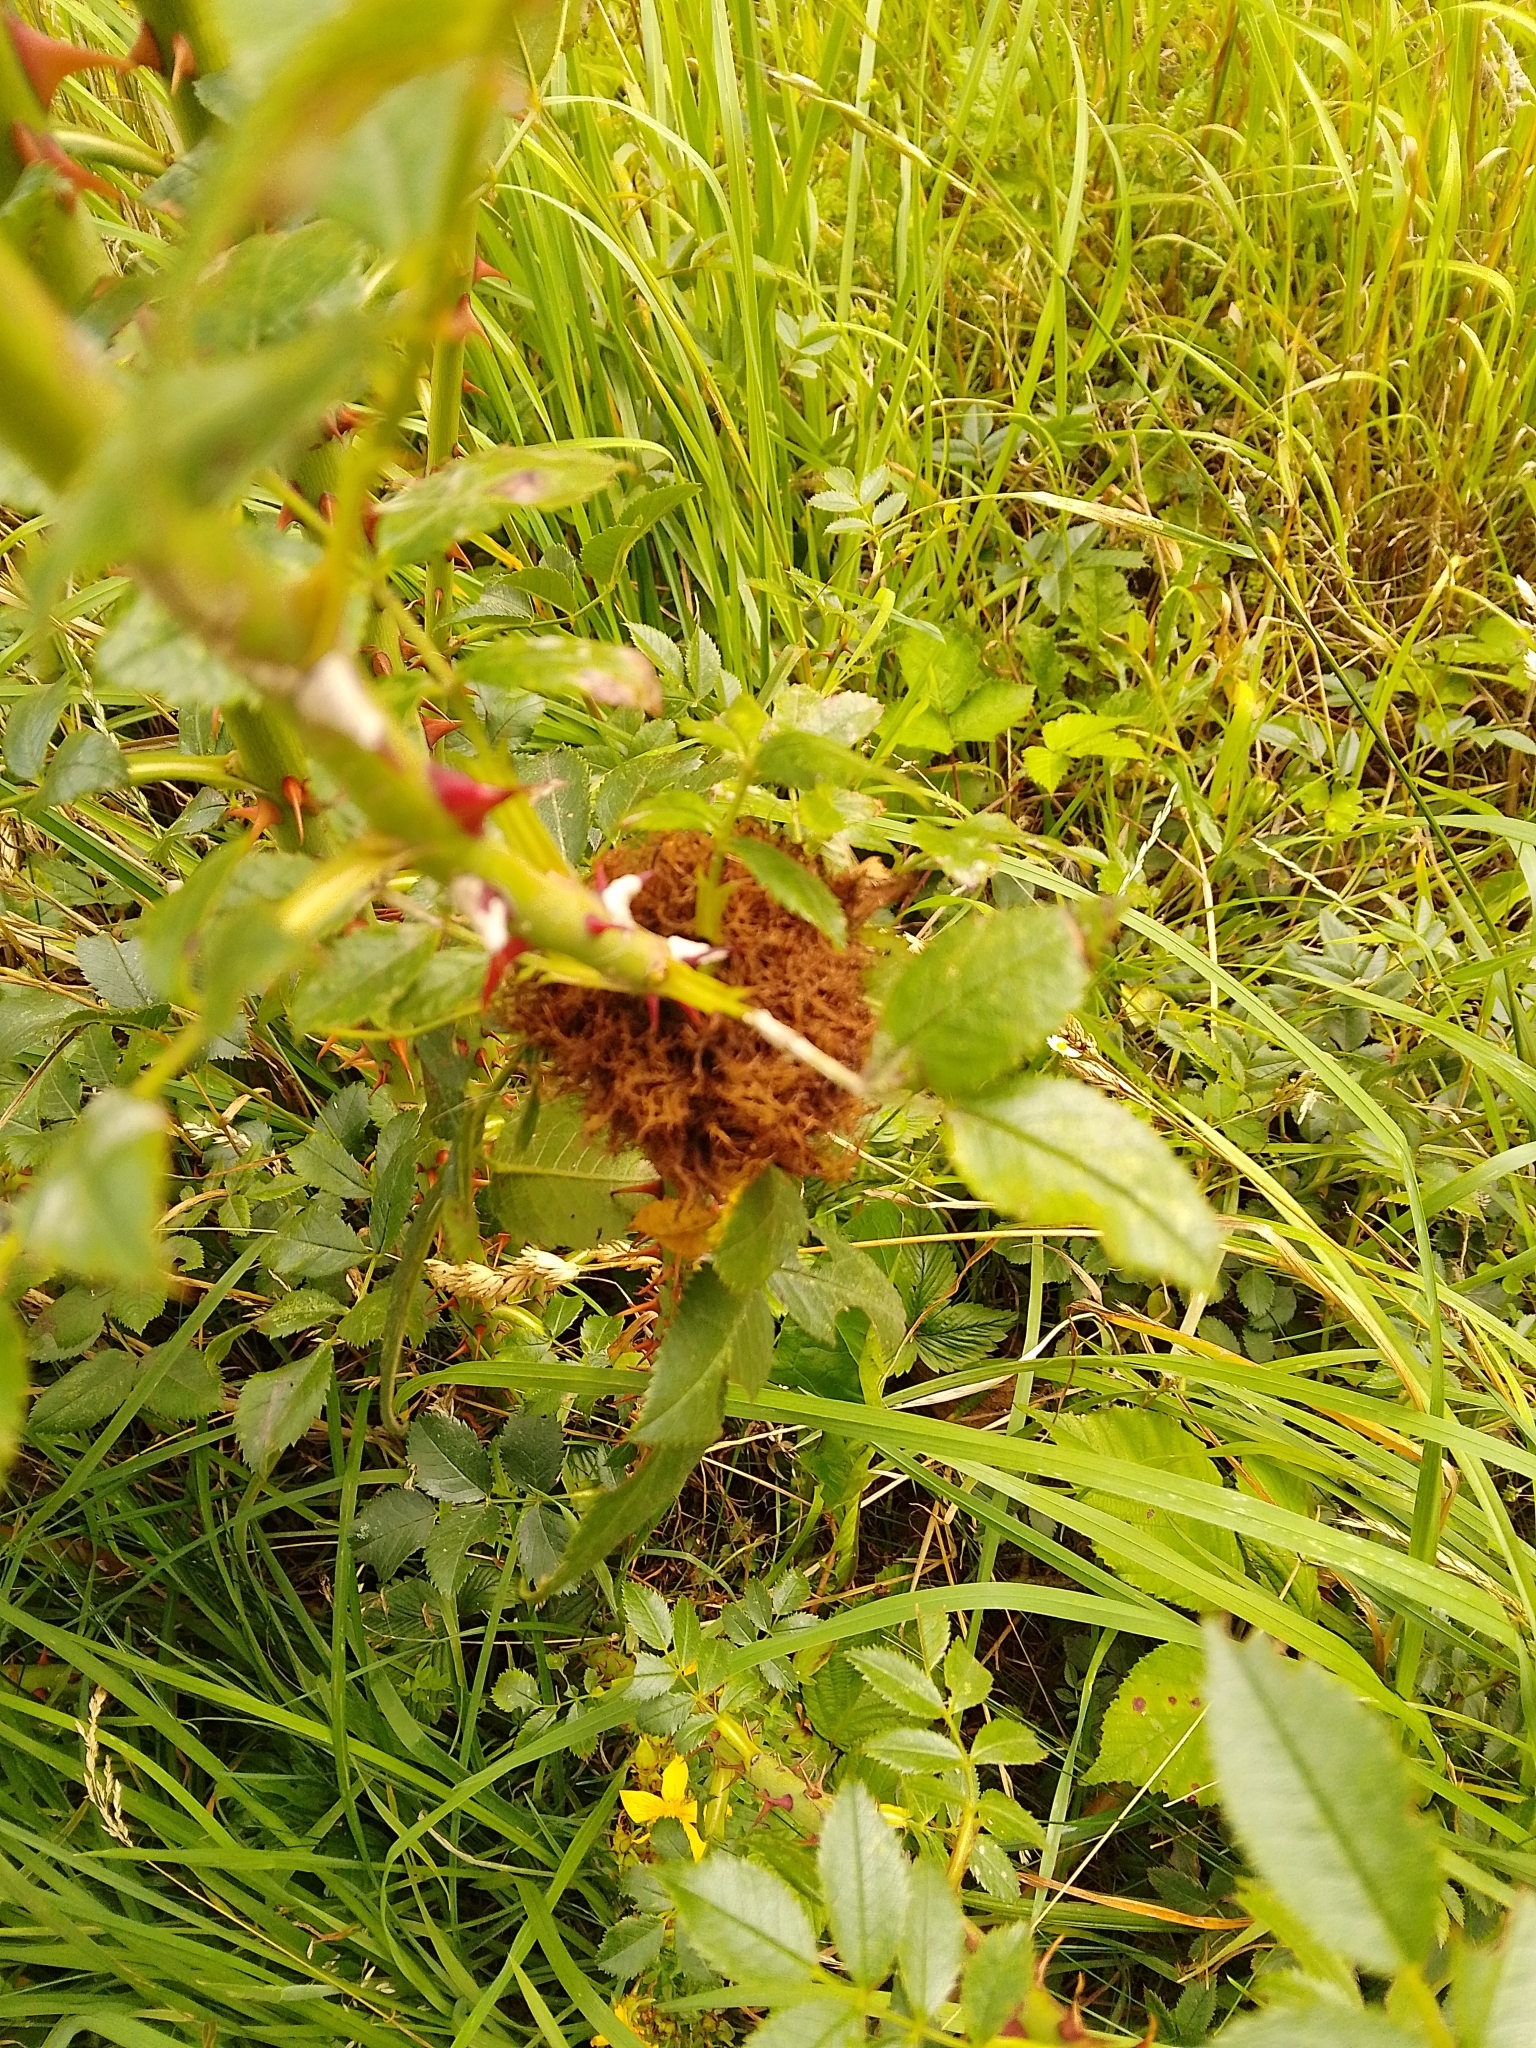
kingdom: Animalia
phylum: Arthropoda
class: Insecta
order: Hymenoptera
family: Cynipidae
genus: Diplolepis
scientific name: Diplolepis rosae
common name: Bedeguar gall
